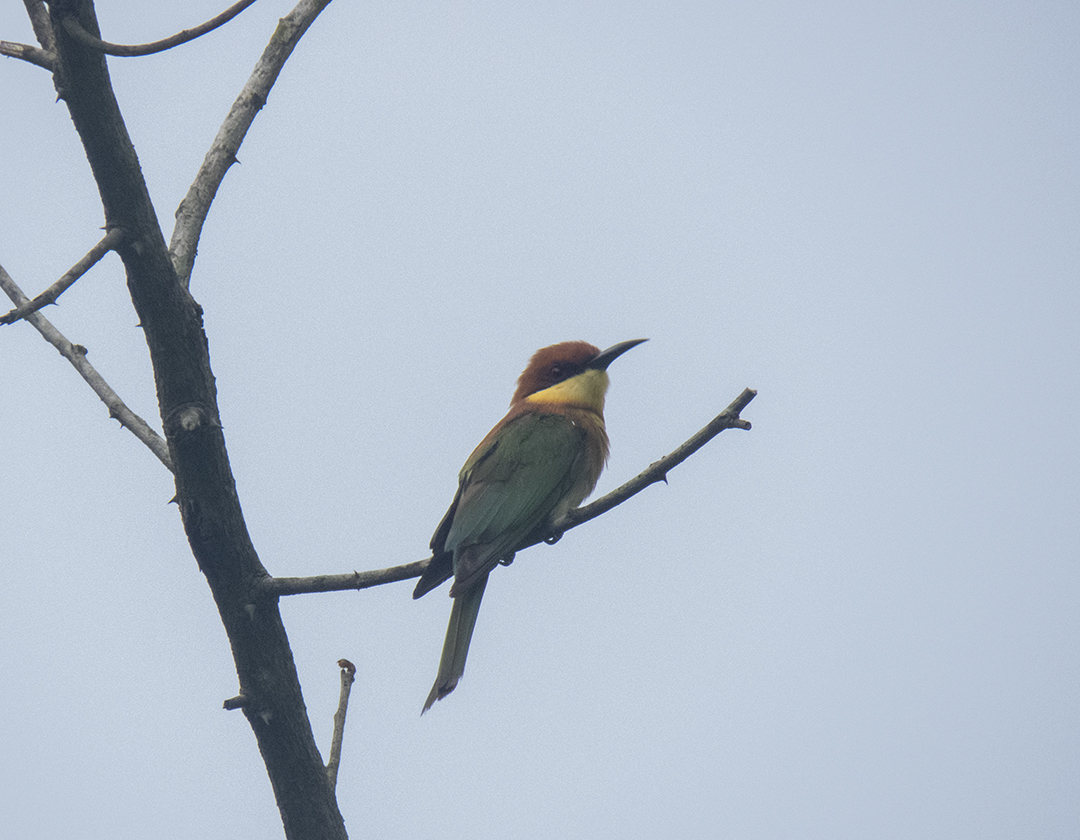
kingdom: Animalia
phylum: Chordata
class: Aves
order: Coraciiformes
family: Meropidae
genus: Merops
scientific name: Merops leschenaulti
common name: Chestnut-headed bee-eater
